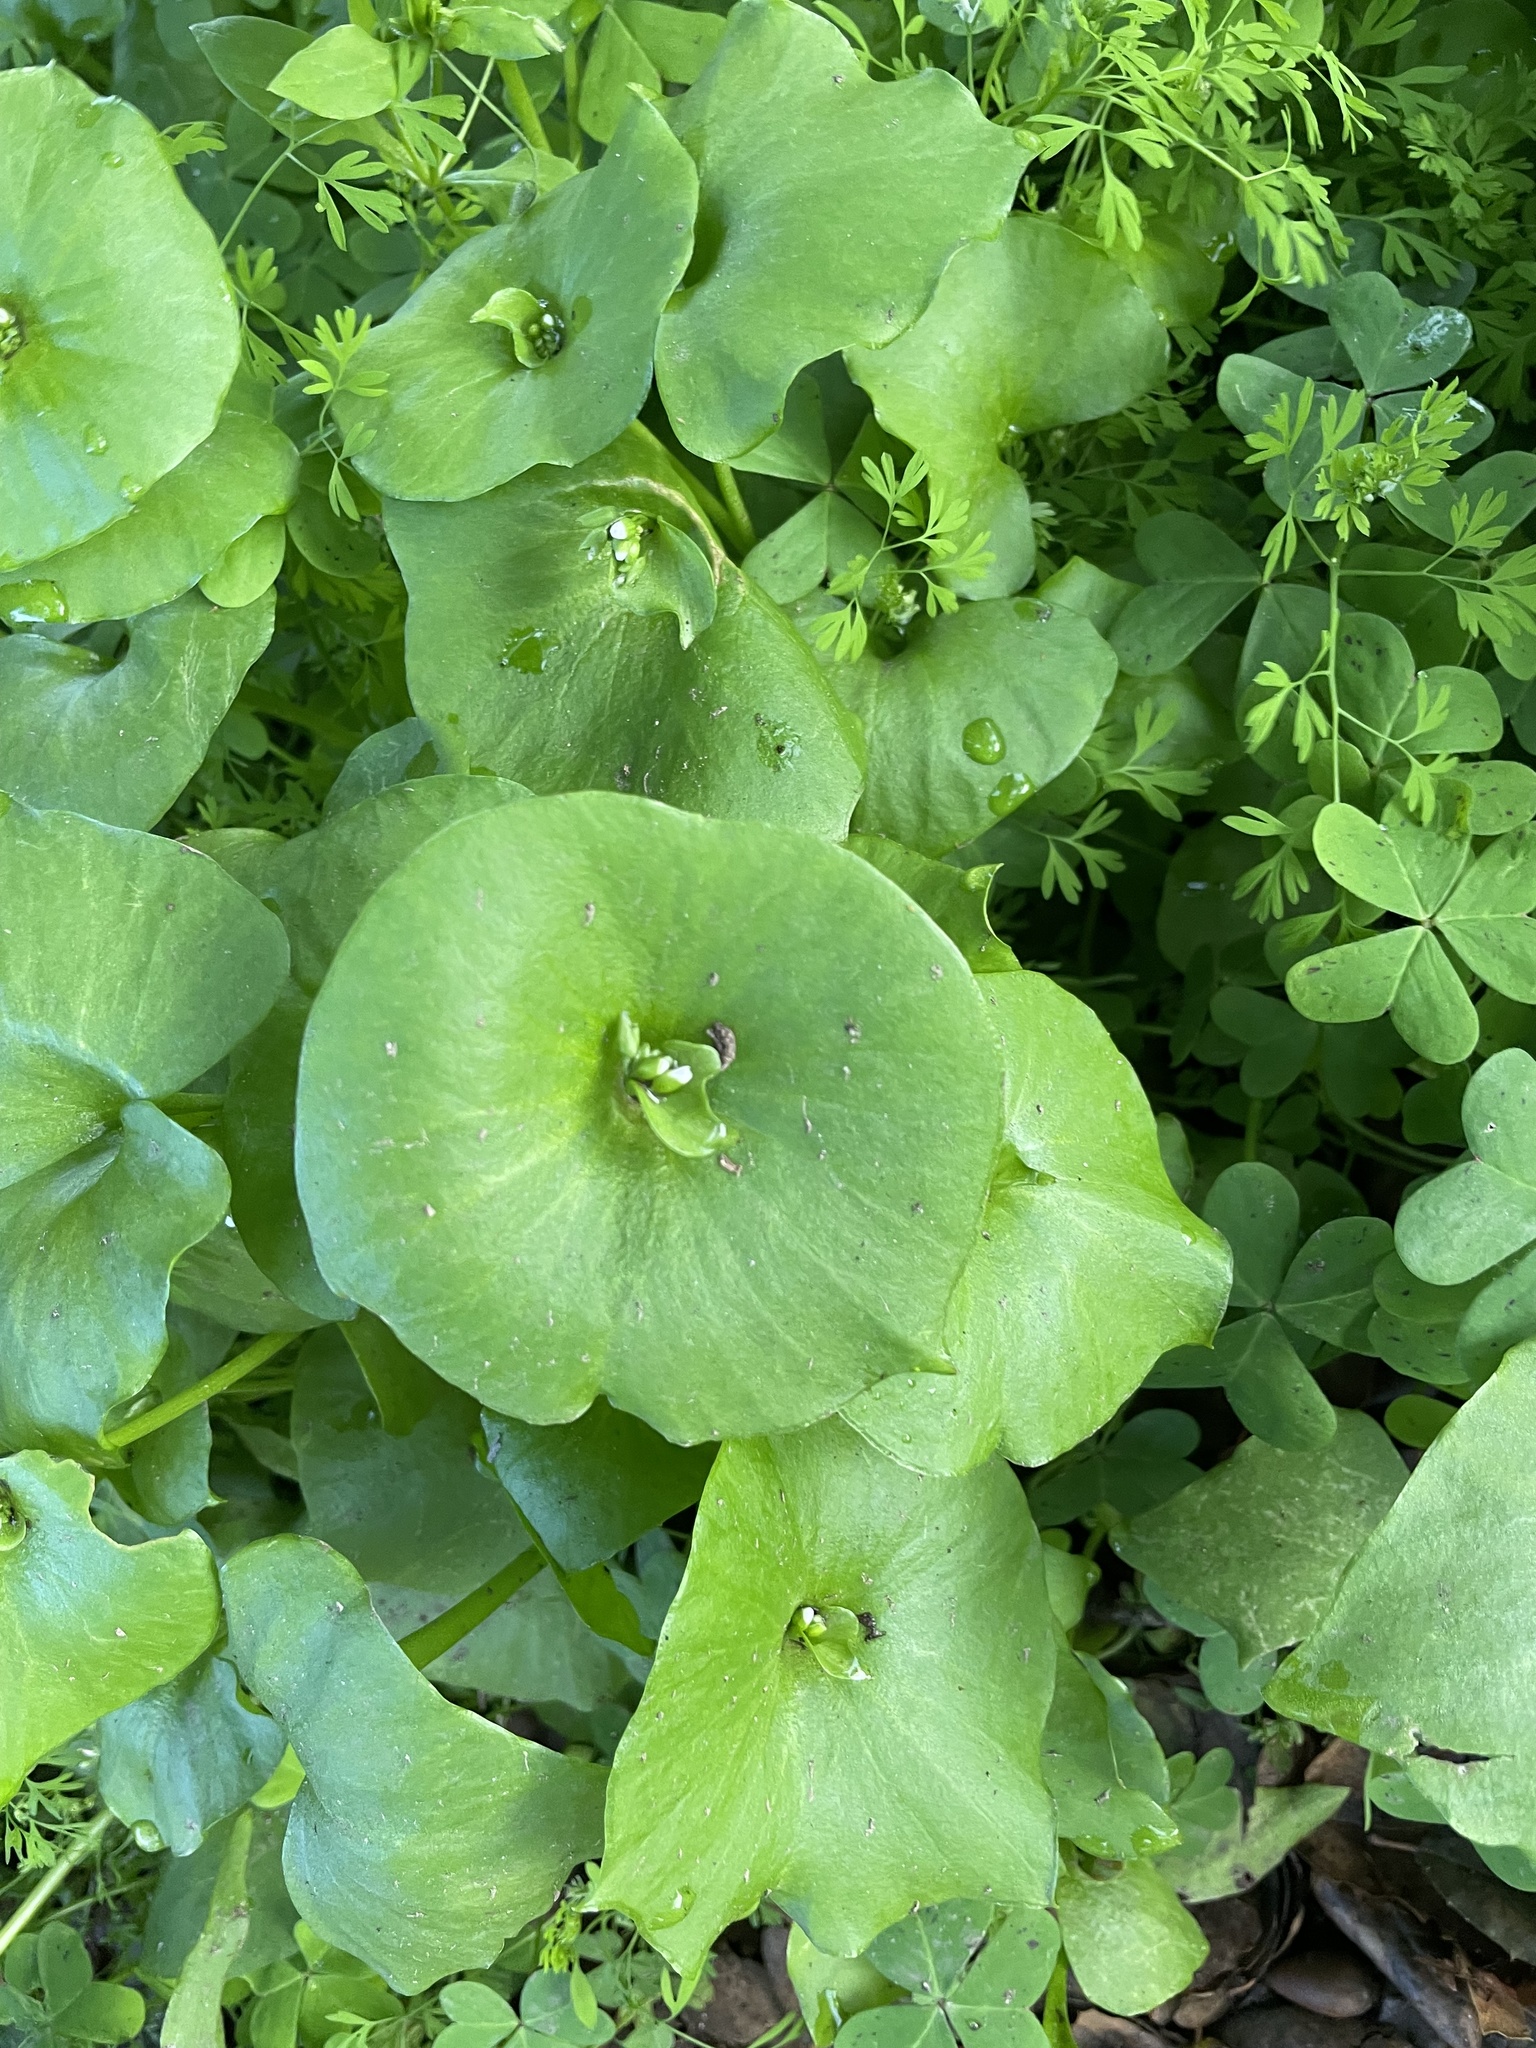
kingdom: Plantae
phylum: Tracheophyta
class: Magnoliopsida
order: Caryophyllales
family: Montiaceae
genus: Claytonia
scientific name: Claytonia perfoliata
